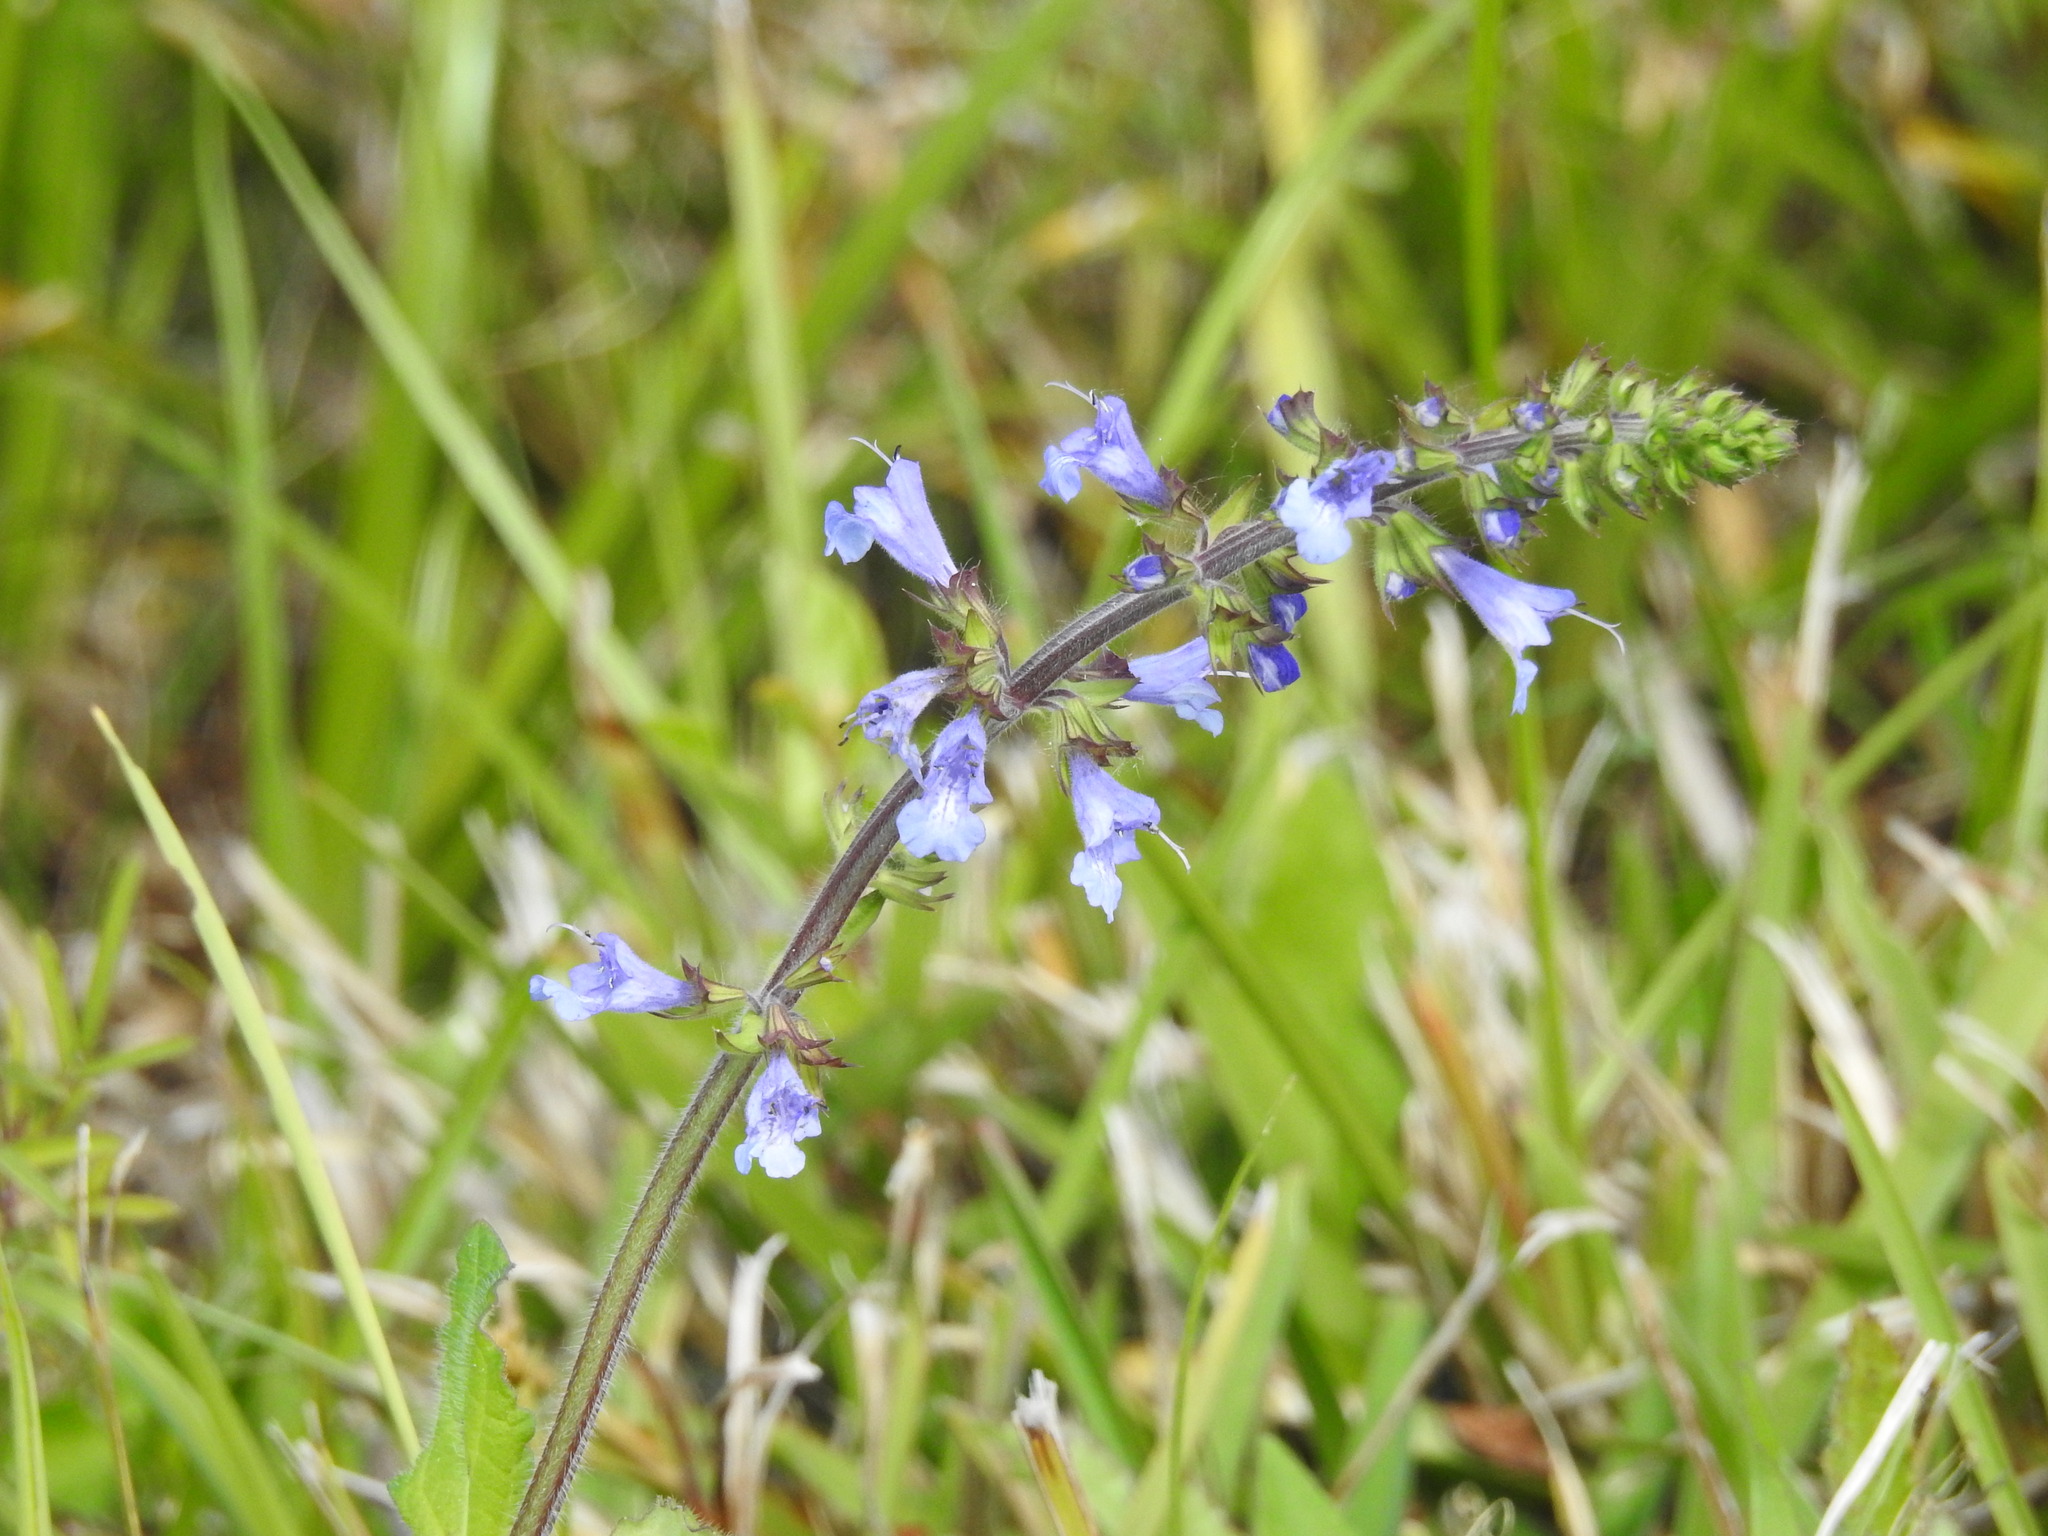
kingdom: Plantae
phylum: Tracheophyta
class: Magnoliopsida
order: Lamiales
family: Lamiaceae
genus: Salvia
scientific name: Salvia lyrata
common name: Cancerweed
